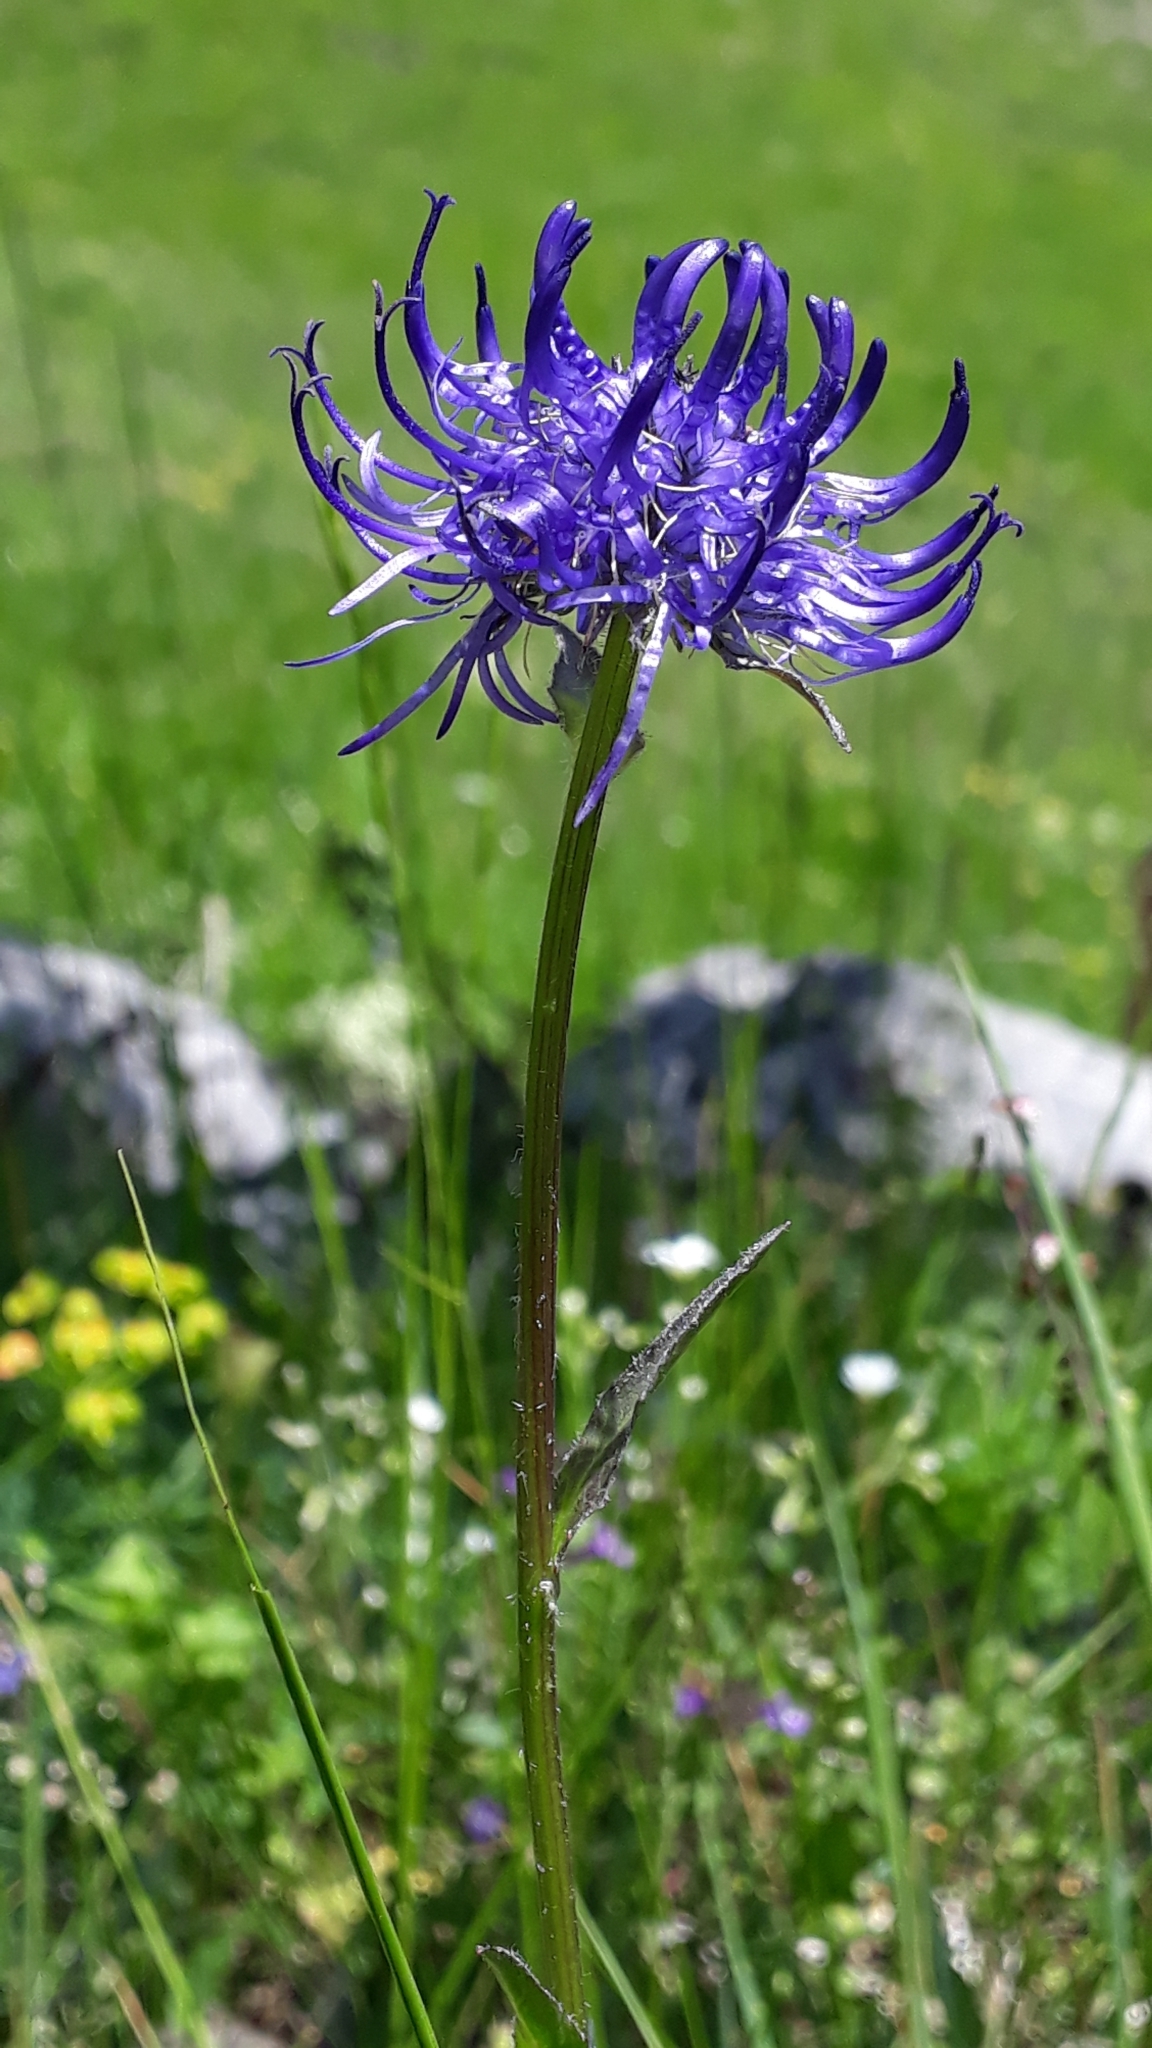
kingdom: Plantae
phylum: Tracheophyta
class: Magnoliopsida
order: Asterales
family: Campanulaceae
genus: Phyteuma
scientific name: Phyteuma orbiculare
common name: Round-headed rampion
